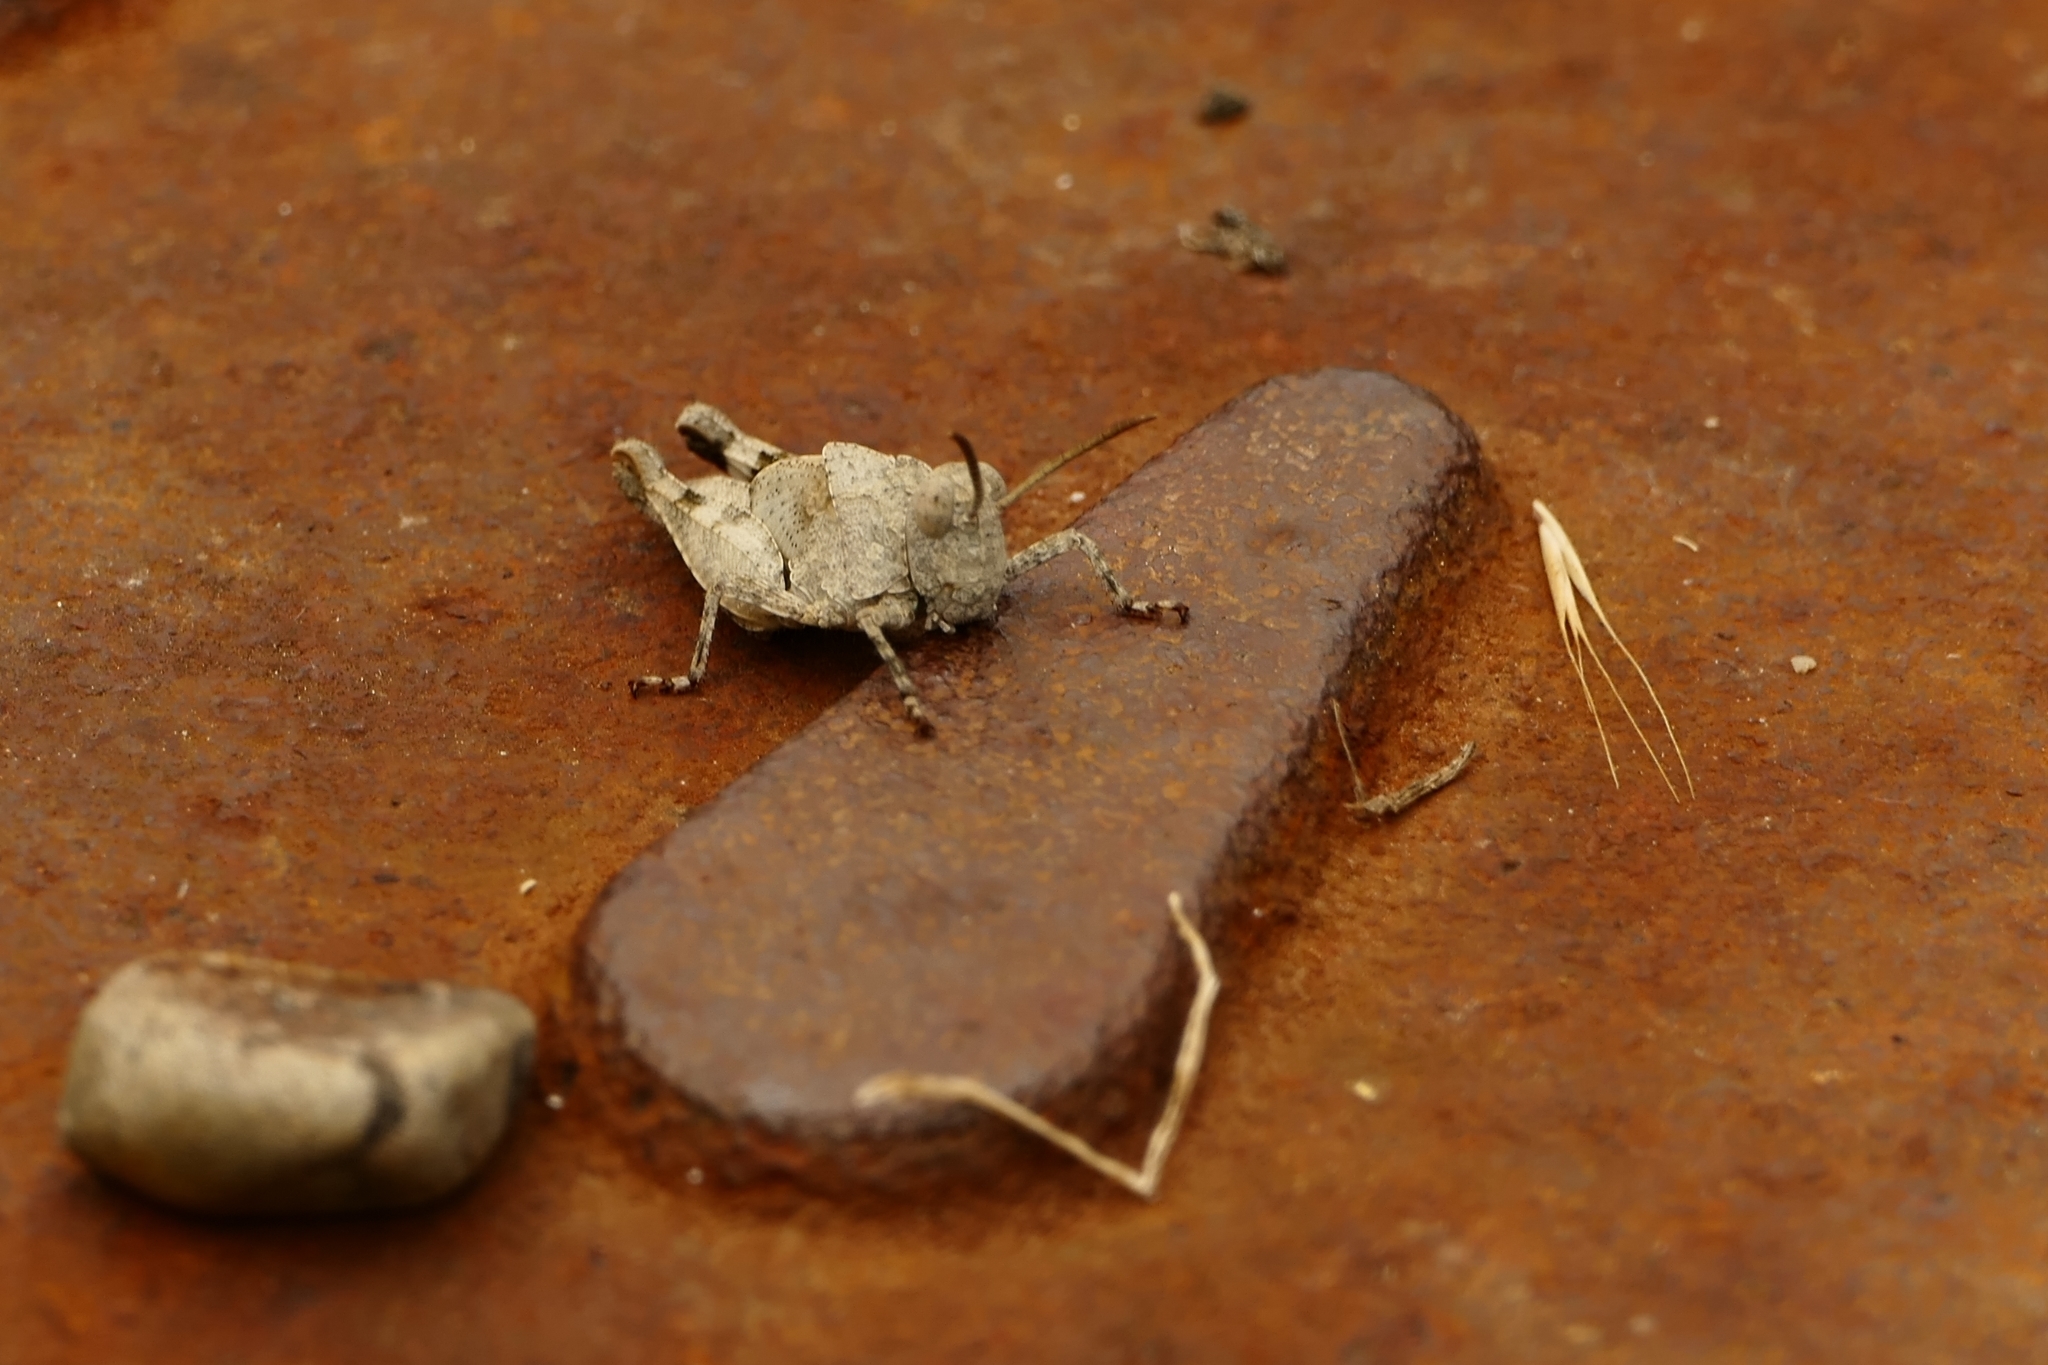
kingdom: Animalia
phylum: Arthropoda
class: Insecta
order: Orthoptera
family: Acrididae
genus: Oedipoda
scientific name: Oedipoda caerulescens
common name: Blue-winged grasshopper
